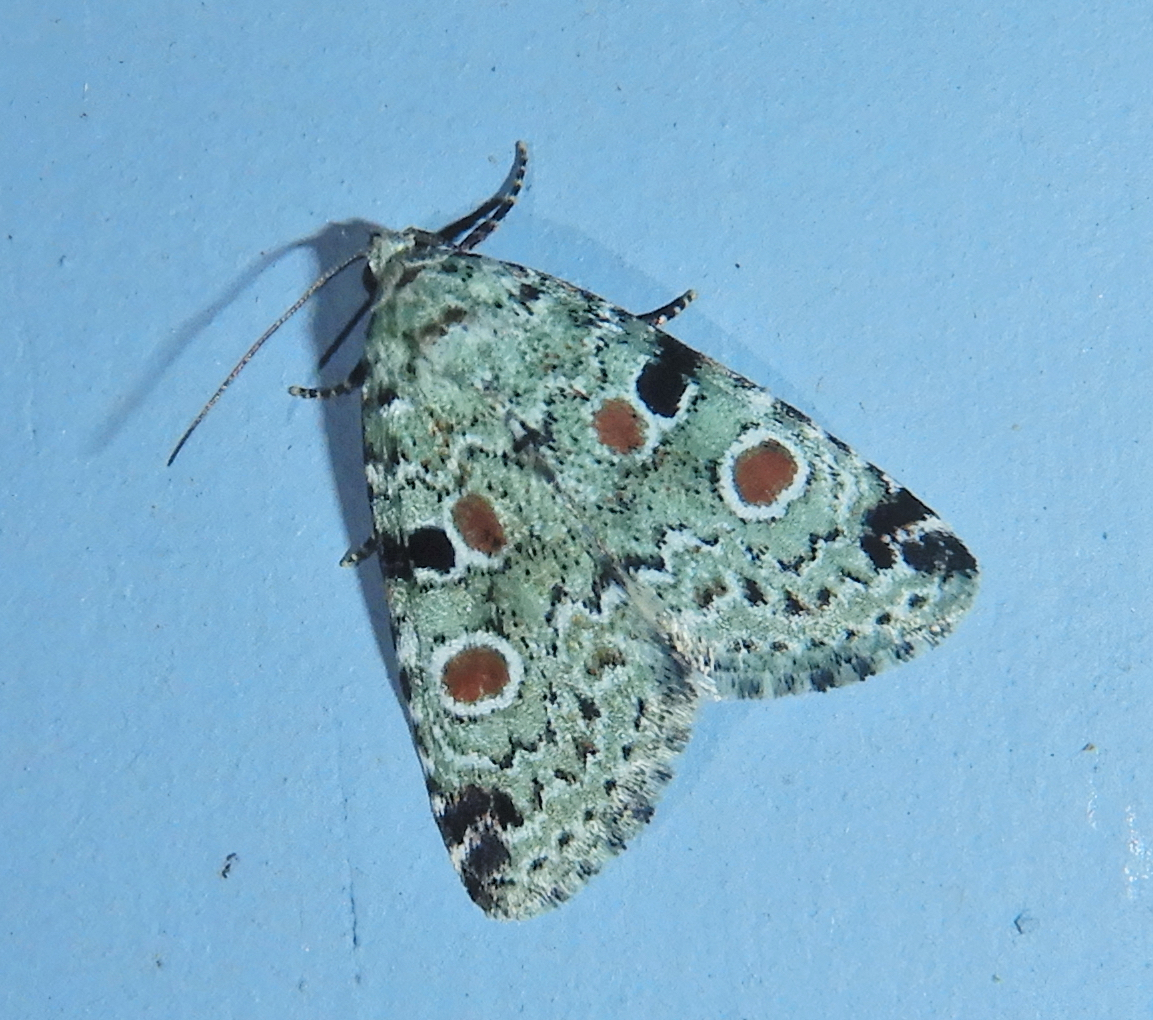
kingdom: Animalia
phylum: Arthropoda
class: Insecta
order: Lepidoptera
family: Noctuidae
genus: Maliattha
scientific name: Maliattha concinnimacula
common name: Red-spotted glyph
